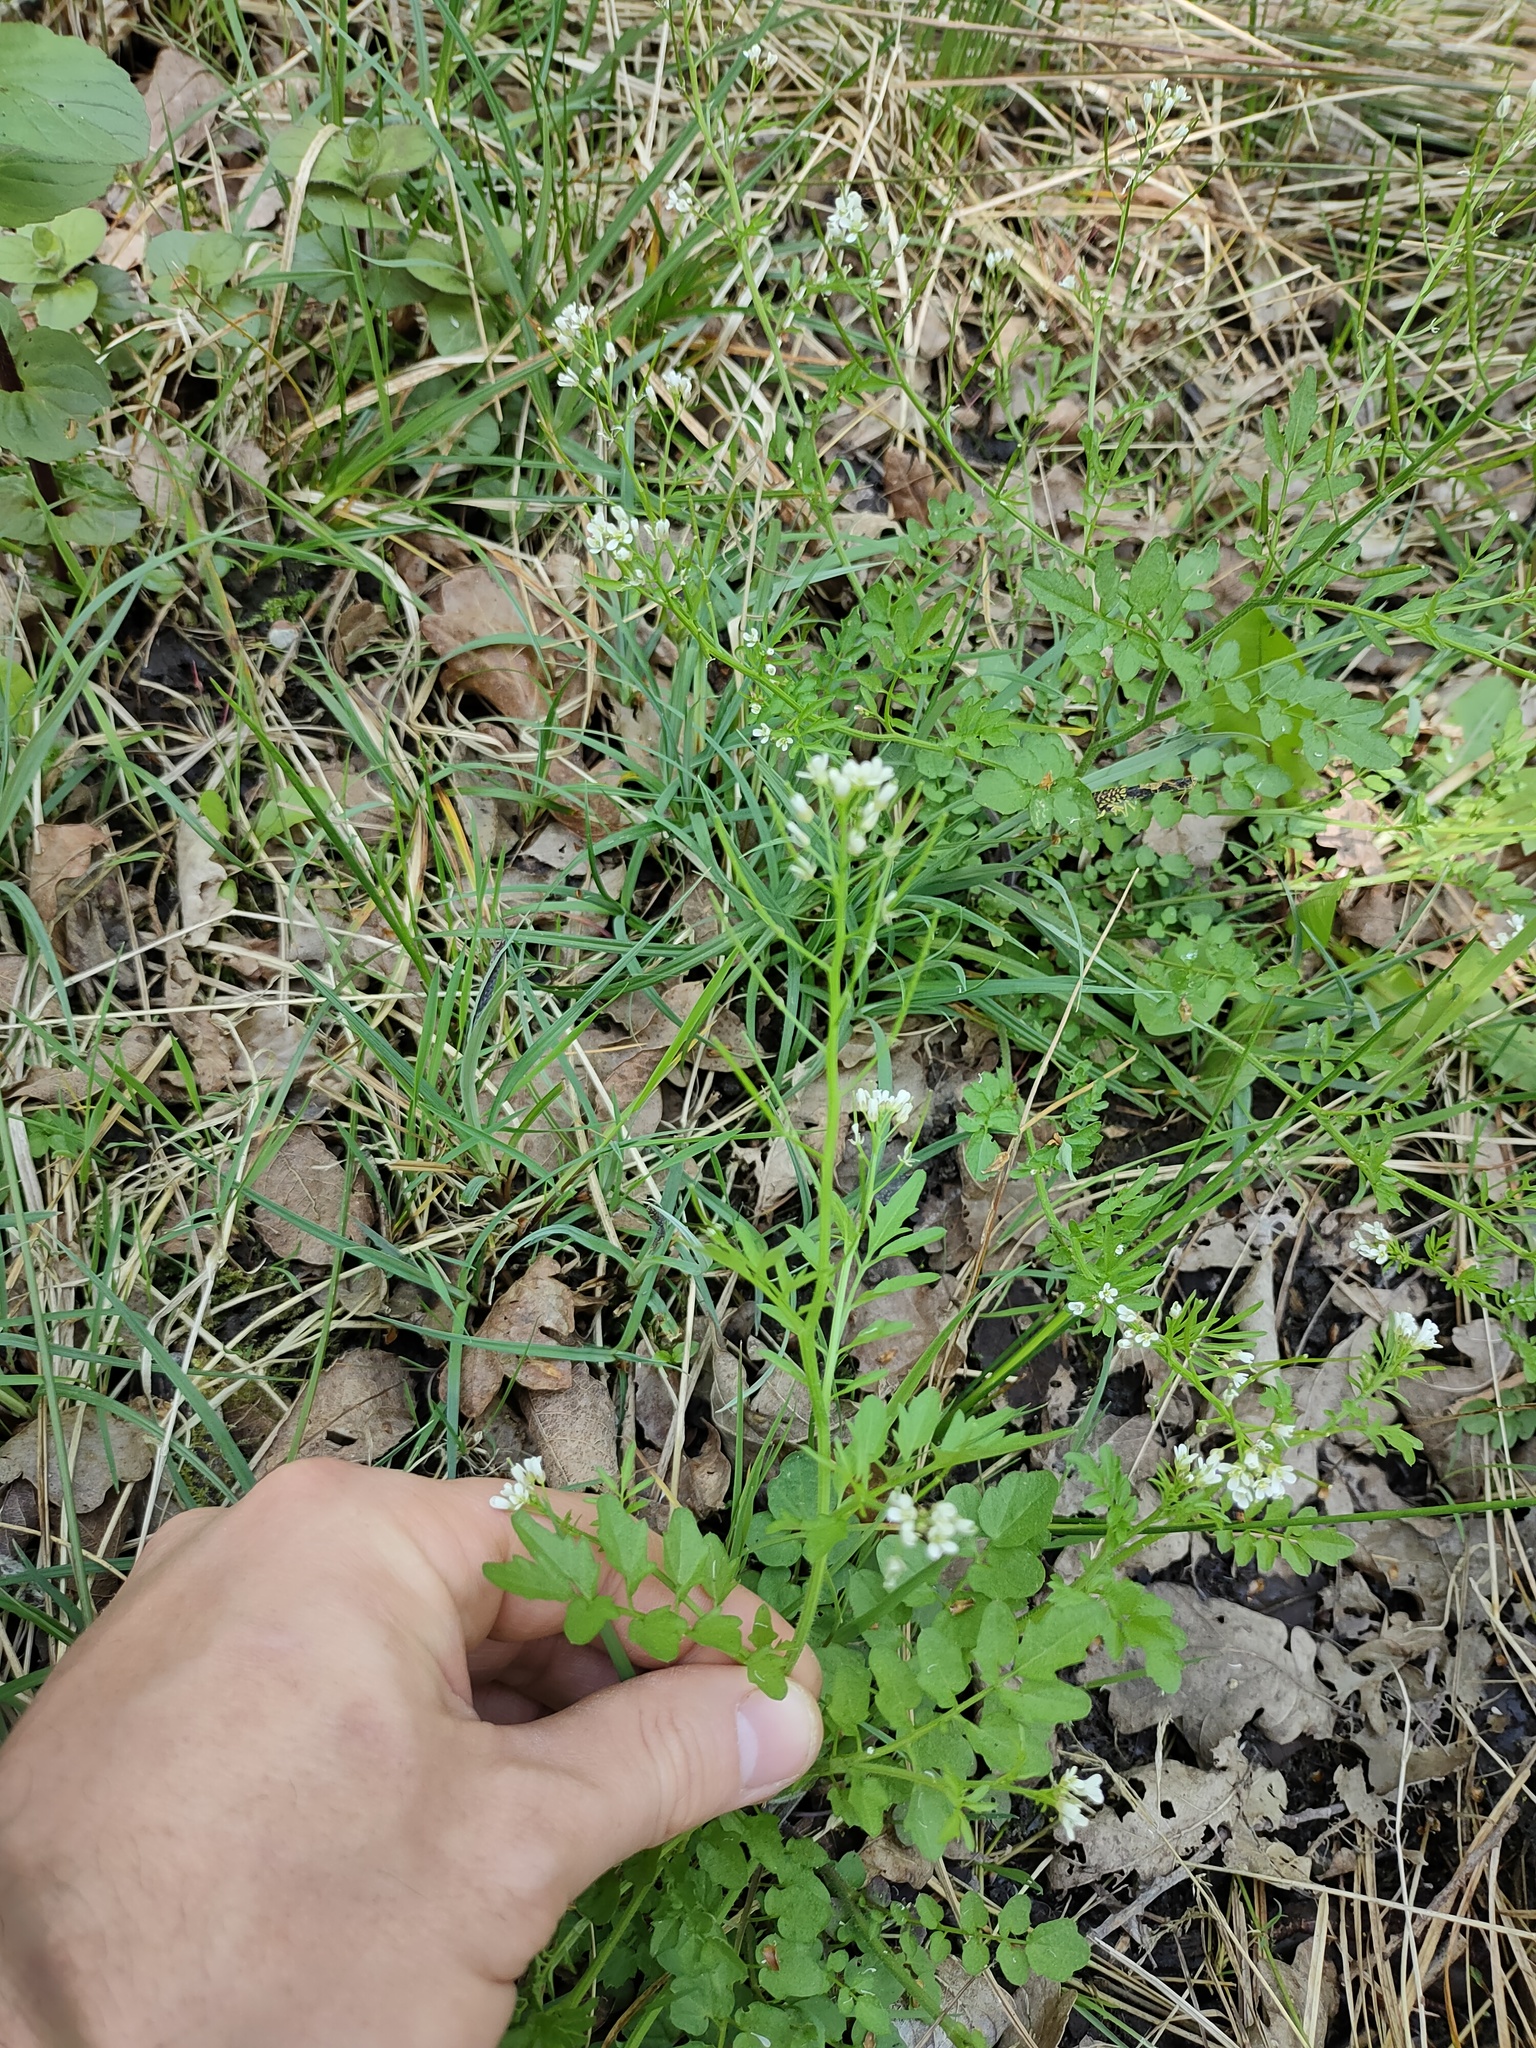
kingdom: Plantae
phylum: Tracheophyta
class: Magnoliopsida
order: Brassicales
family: Brassicaceae
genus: Cardamine
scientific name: Cardamine flexuosa
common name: Woodland bittercress
